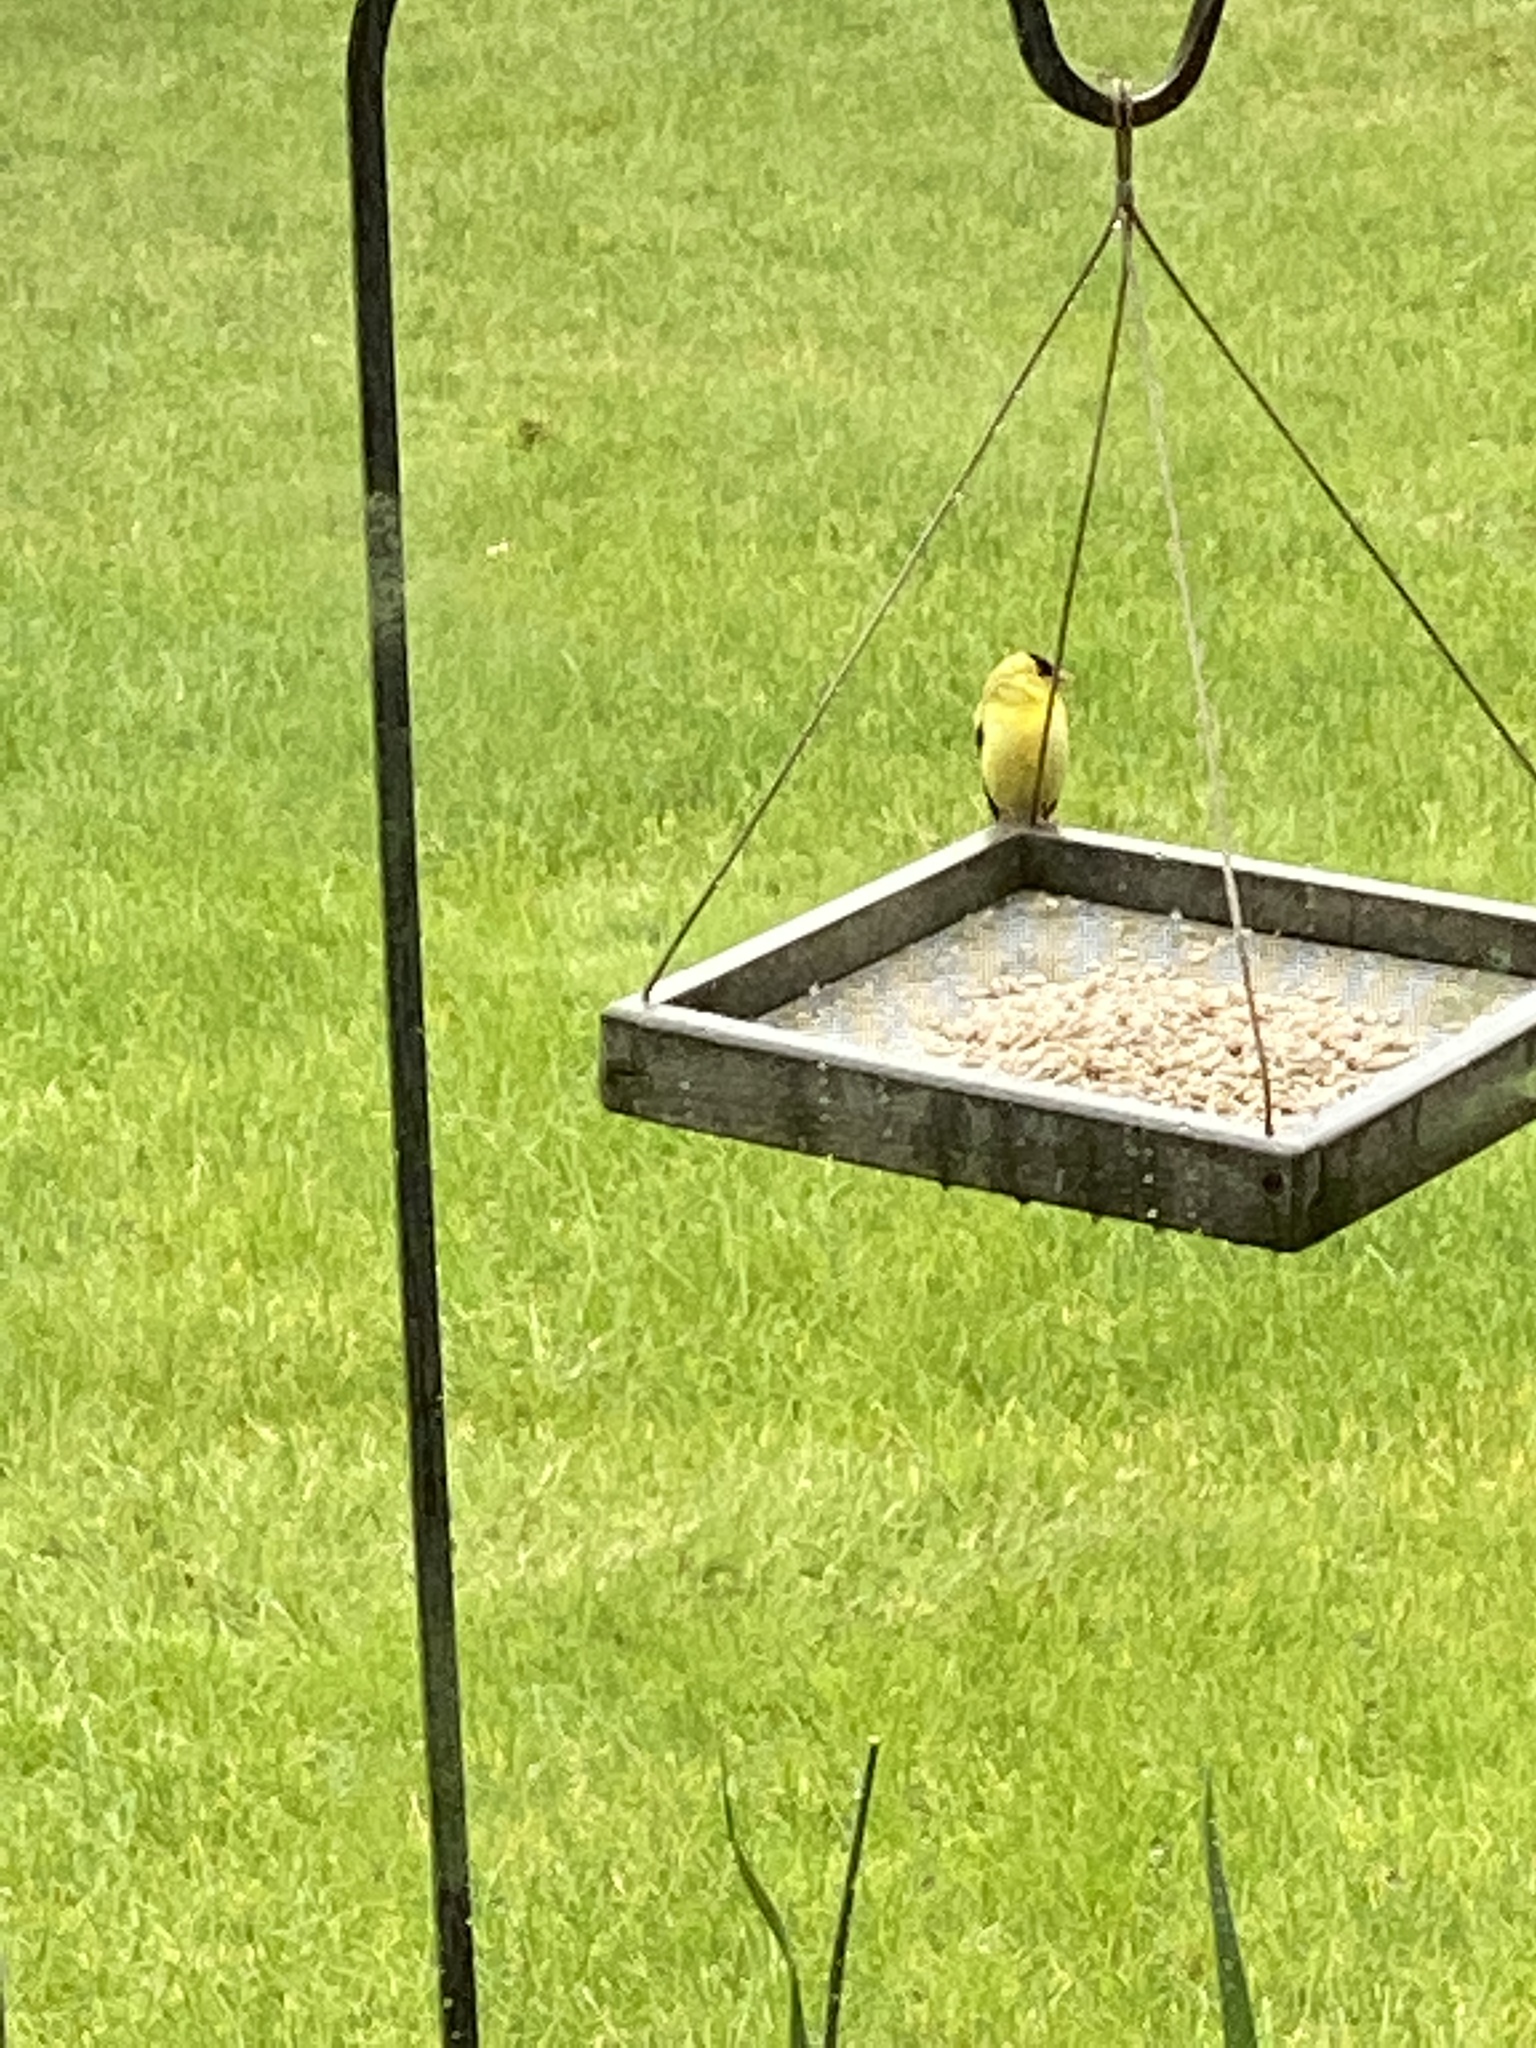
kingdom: Animalia
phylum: Chordata
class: Aves
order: Passeriformes
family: Fringillidae
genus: Spinus
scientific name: Spinus tristis
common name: American goldfinch
